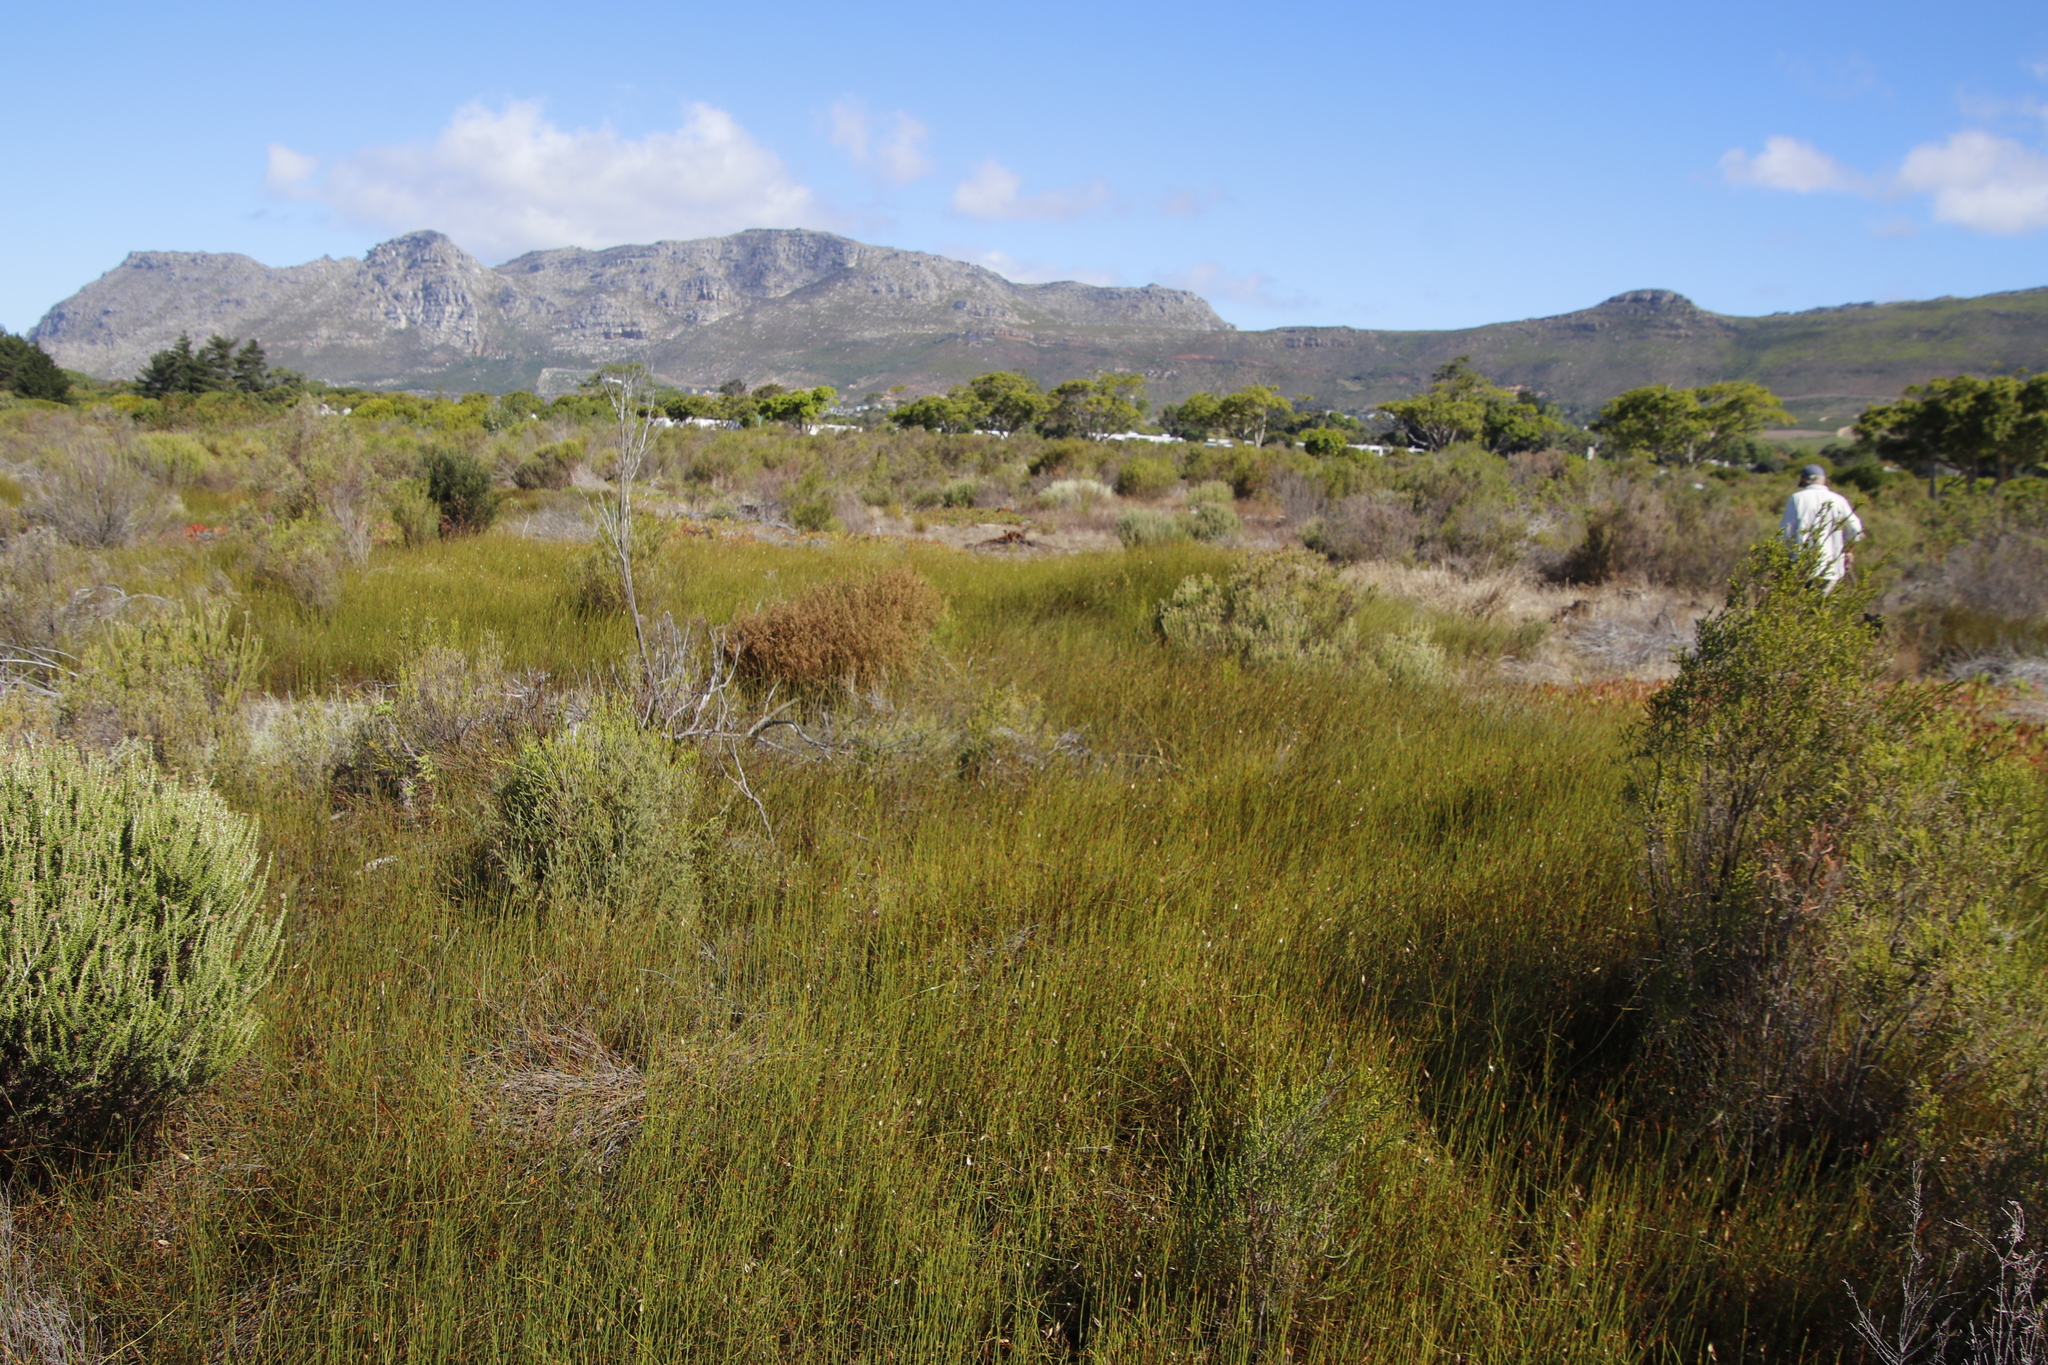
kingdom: Plantae
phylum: Tracheophyta
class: Liliopsida
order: Poales
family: Restionaceae
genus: Willdenowia
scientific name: Willdenowia sulcata
